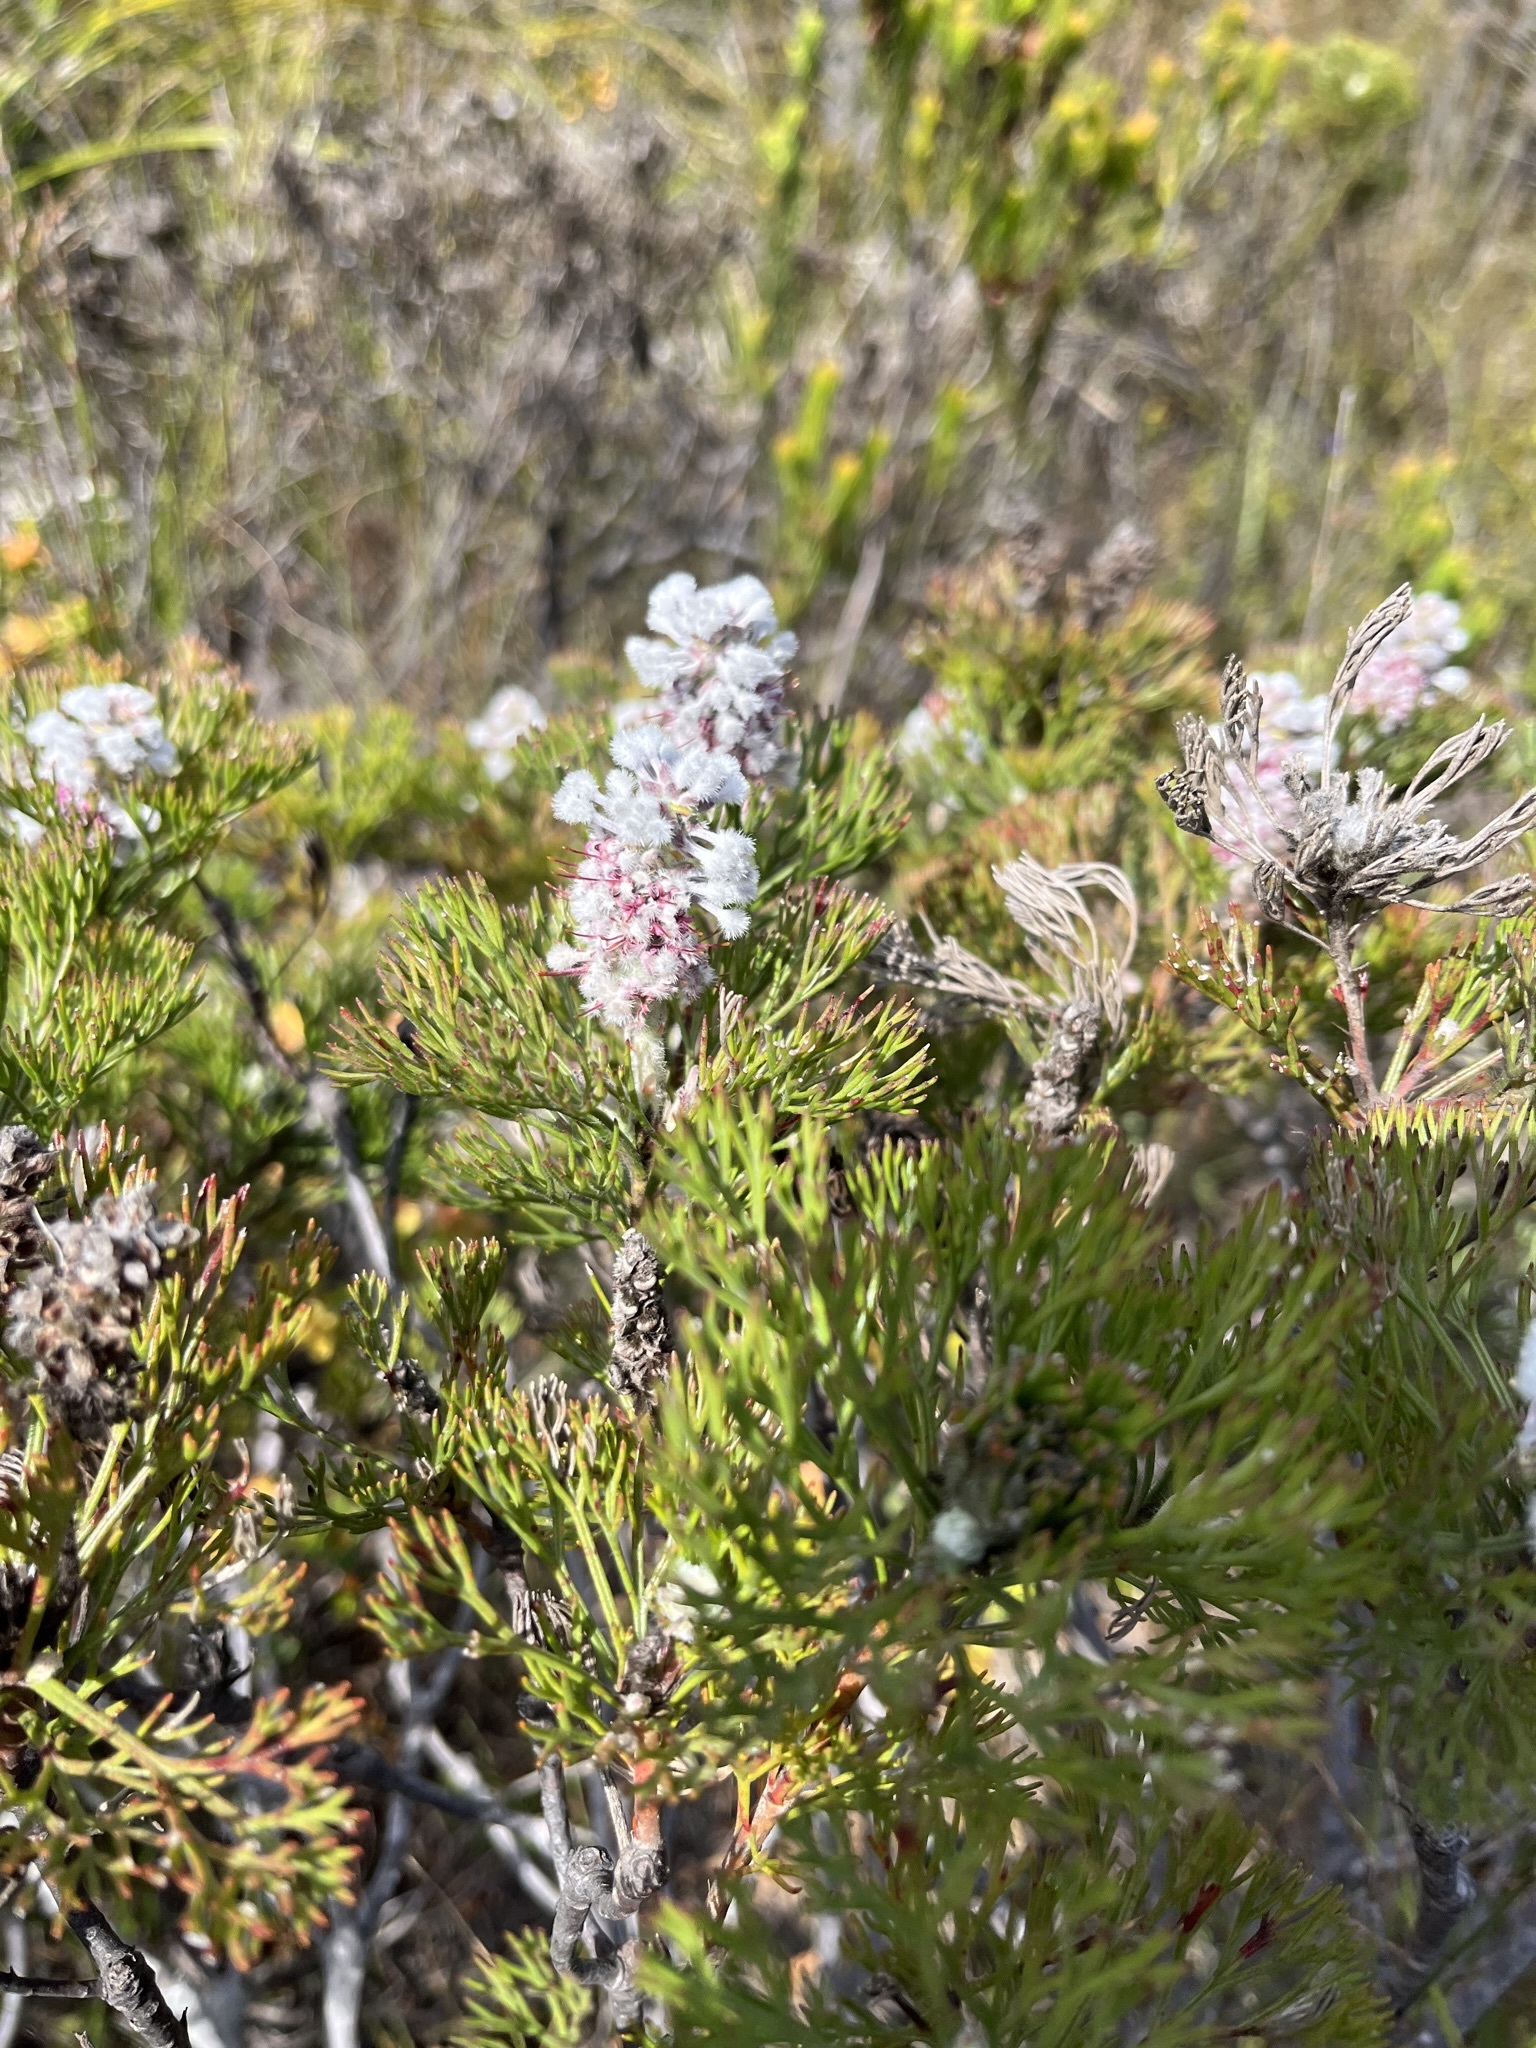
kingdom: Plantae
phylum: Tracheophyta
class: Magnoliopsida
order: Proteales
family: Proteaceae
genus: Paranomus
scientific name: Paranomus abrotanifolius
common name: Bredasdorp sceptre
